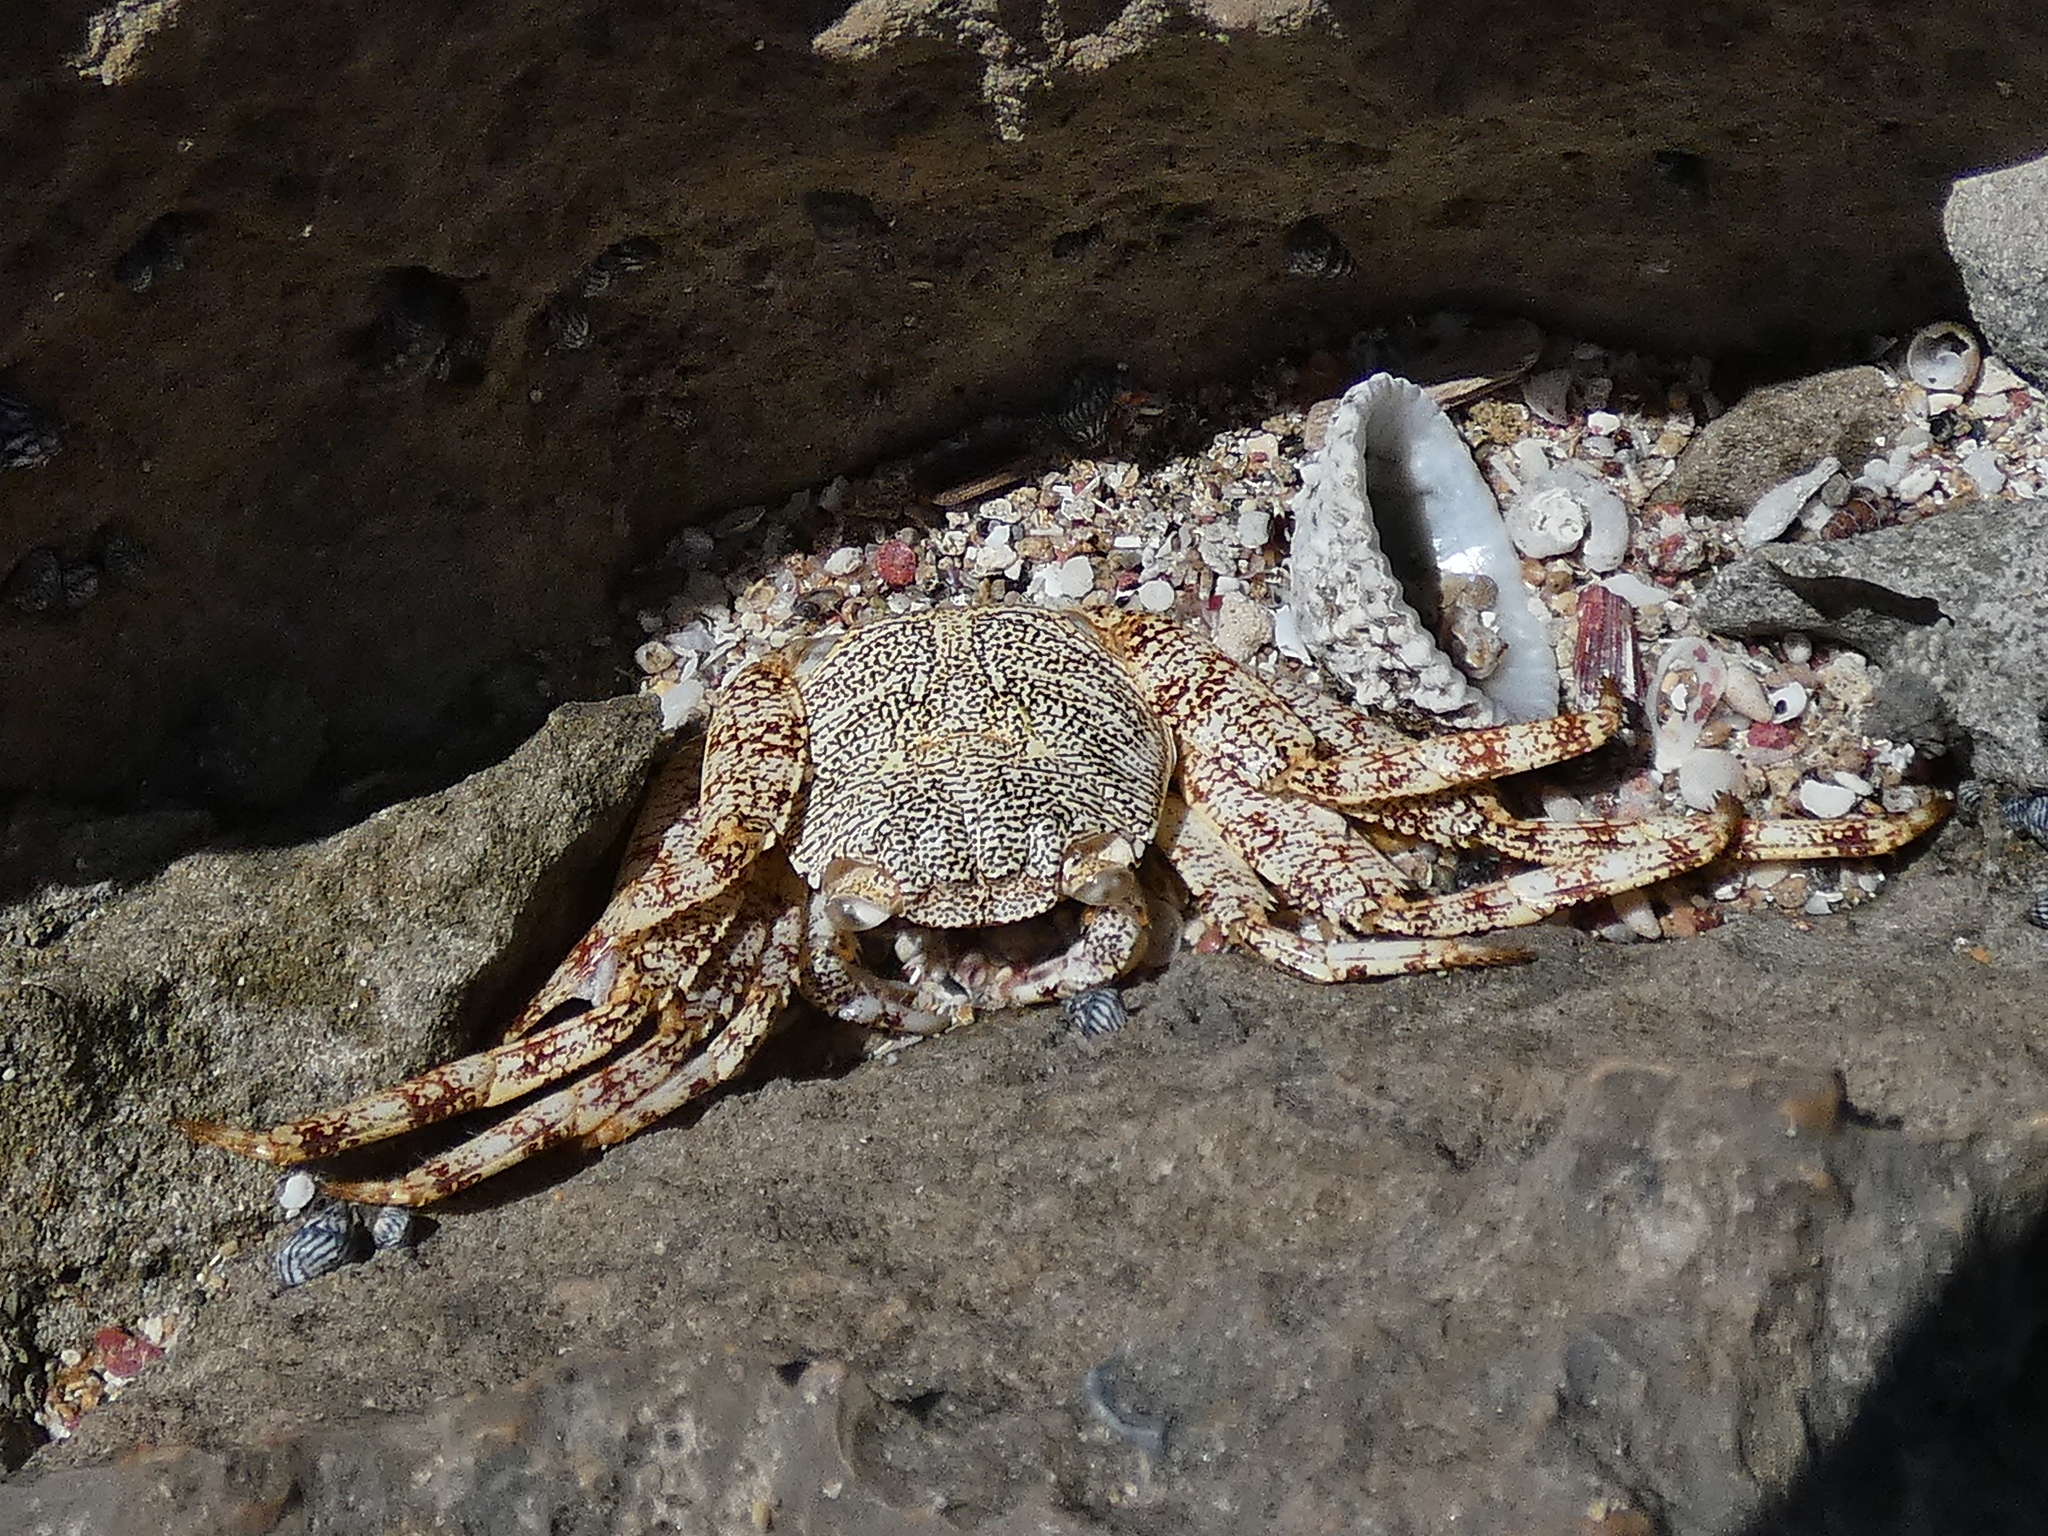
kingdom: Animalia
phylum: Arthropoda
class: Malacostraca
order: Decapoda
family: Grapsidae
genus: Grapsus
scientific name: Grapsus grapsus
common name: Sally lightfoot
